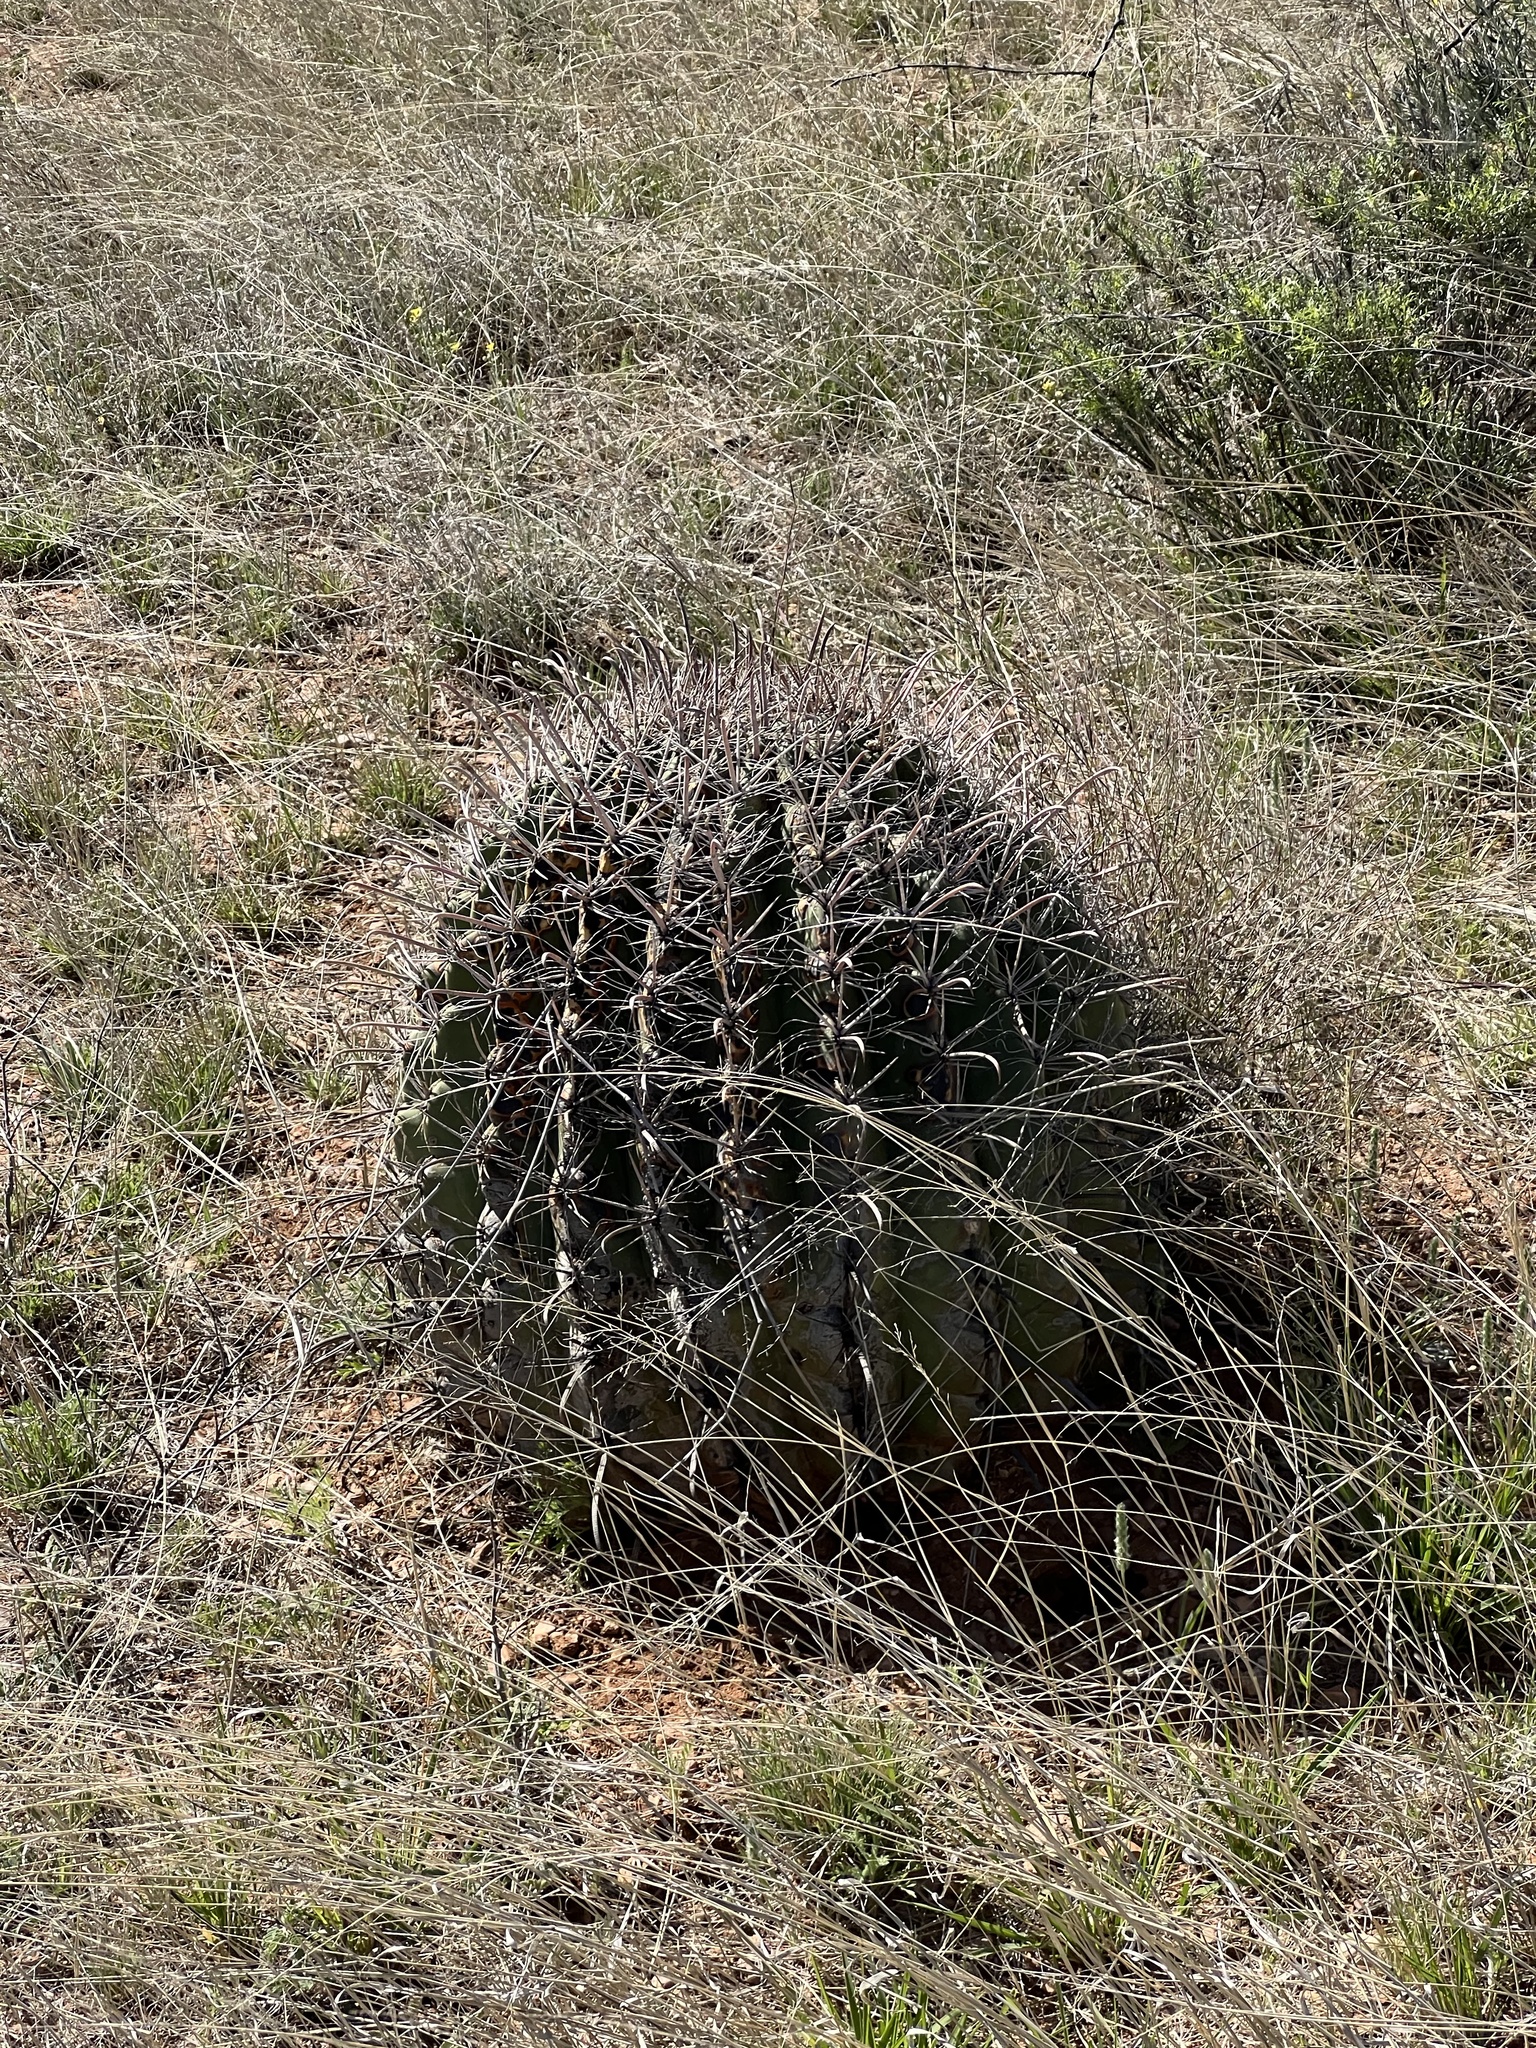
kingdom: Plantae
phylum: Tracheophyta
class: Magnoliopsida
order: Caryophyllales
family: Cactaceae
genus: Ferocactus
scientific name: Ferocactus wislizeni
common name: Candy barrel cactus
